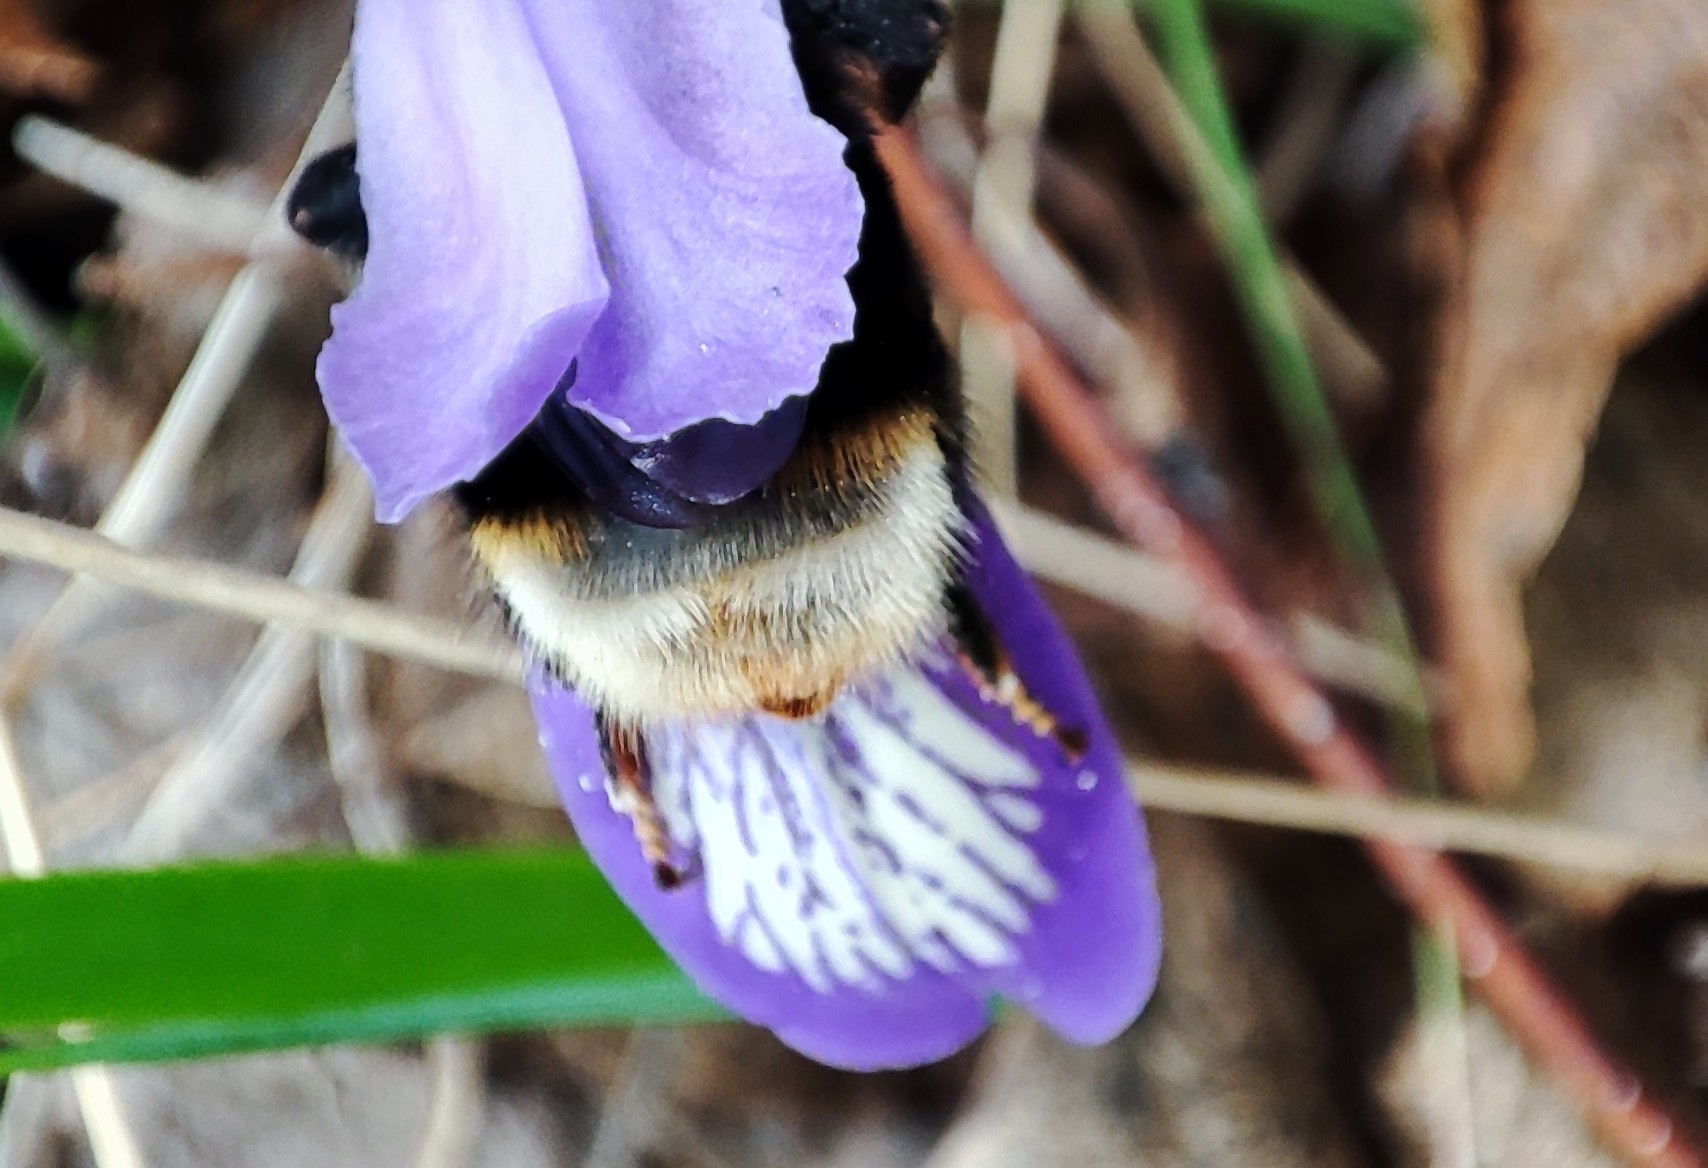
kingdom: Animalia
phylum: Arthropoda
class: Insecta
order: Hymenoptera
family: Apidae
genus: Bombus
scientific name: Bombus
